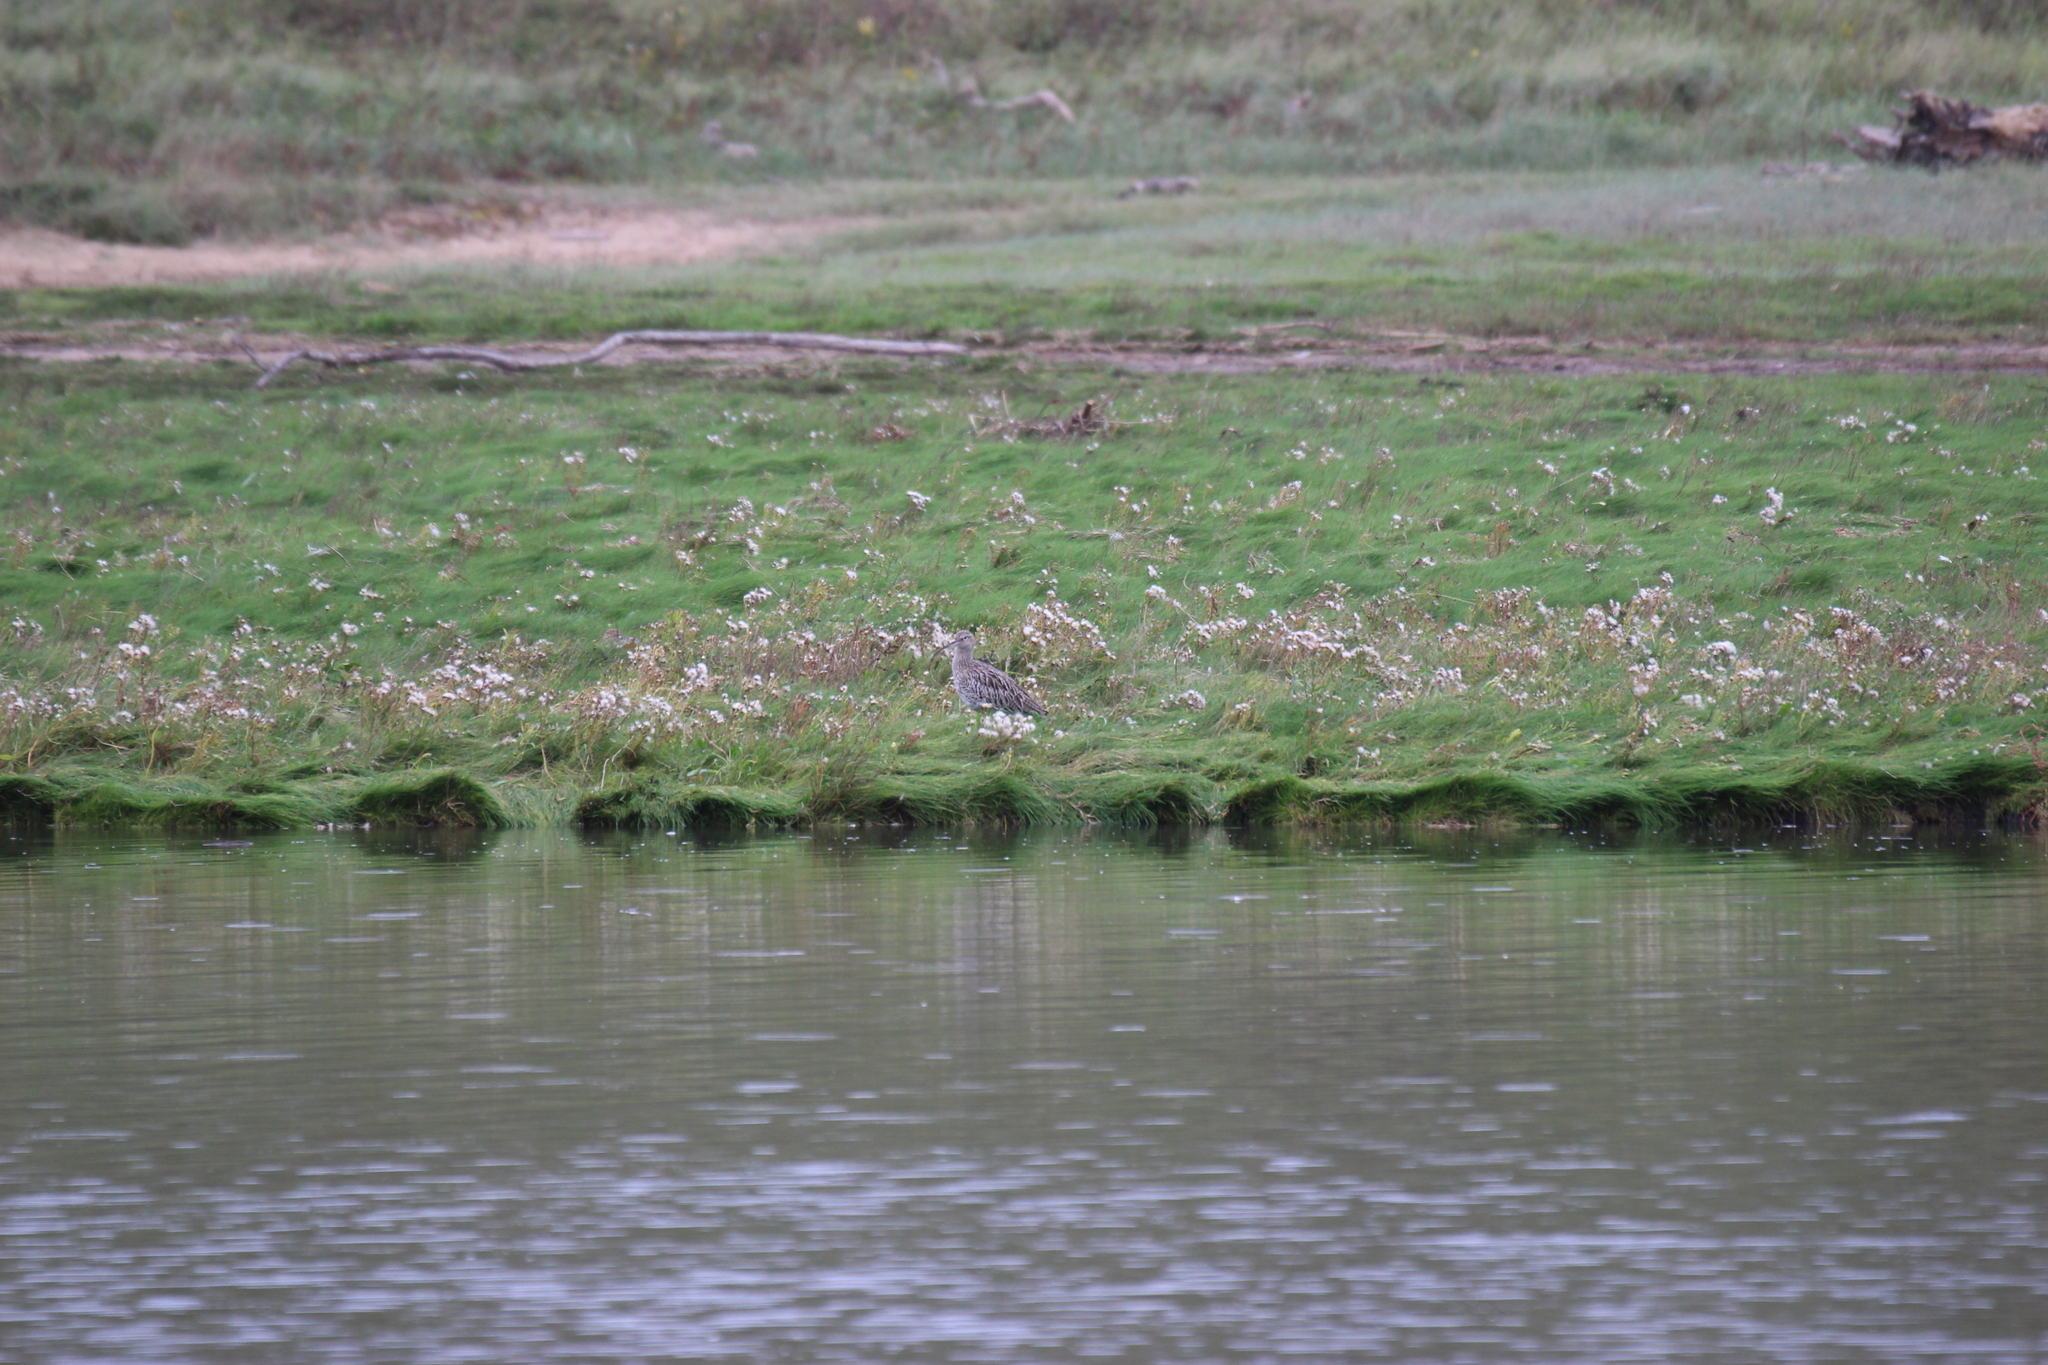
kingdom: Animalia
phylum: Chordata
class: Aves
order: Charadriiformes
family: Scolopacidae
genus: Numenius
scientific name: Numenius arquata
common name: Eurasian curlew
